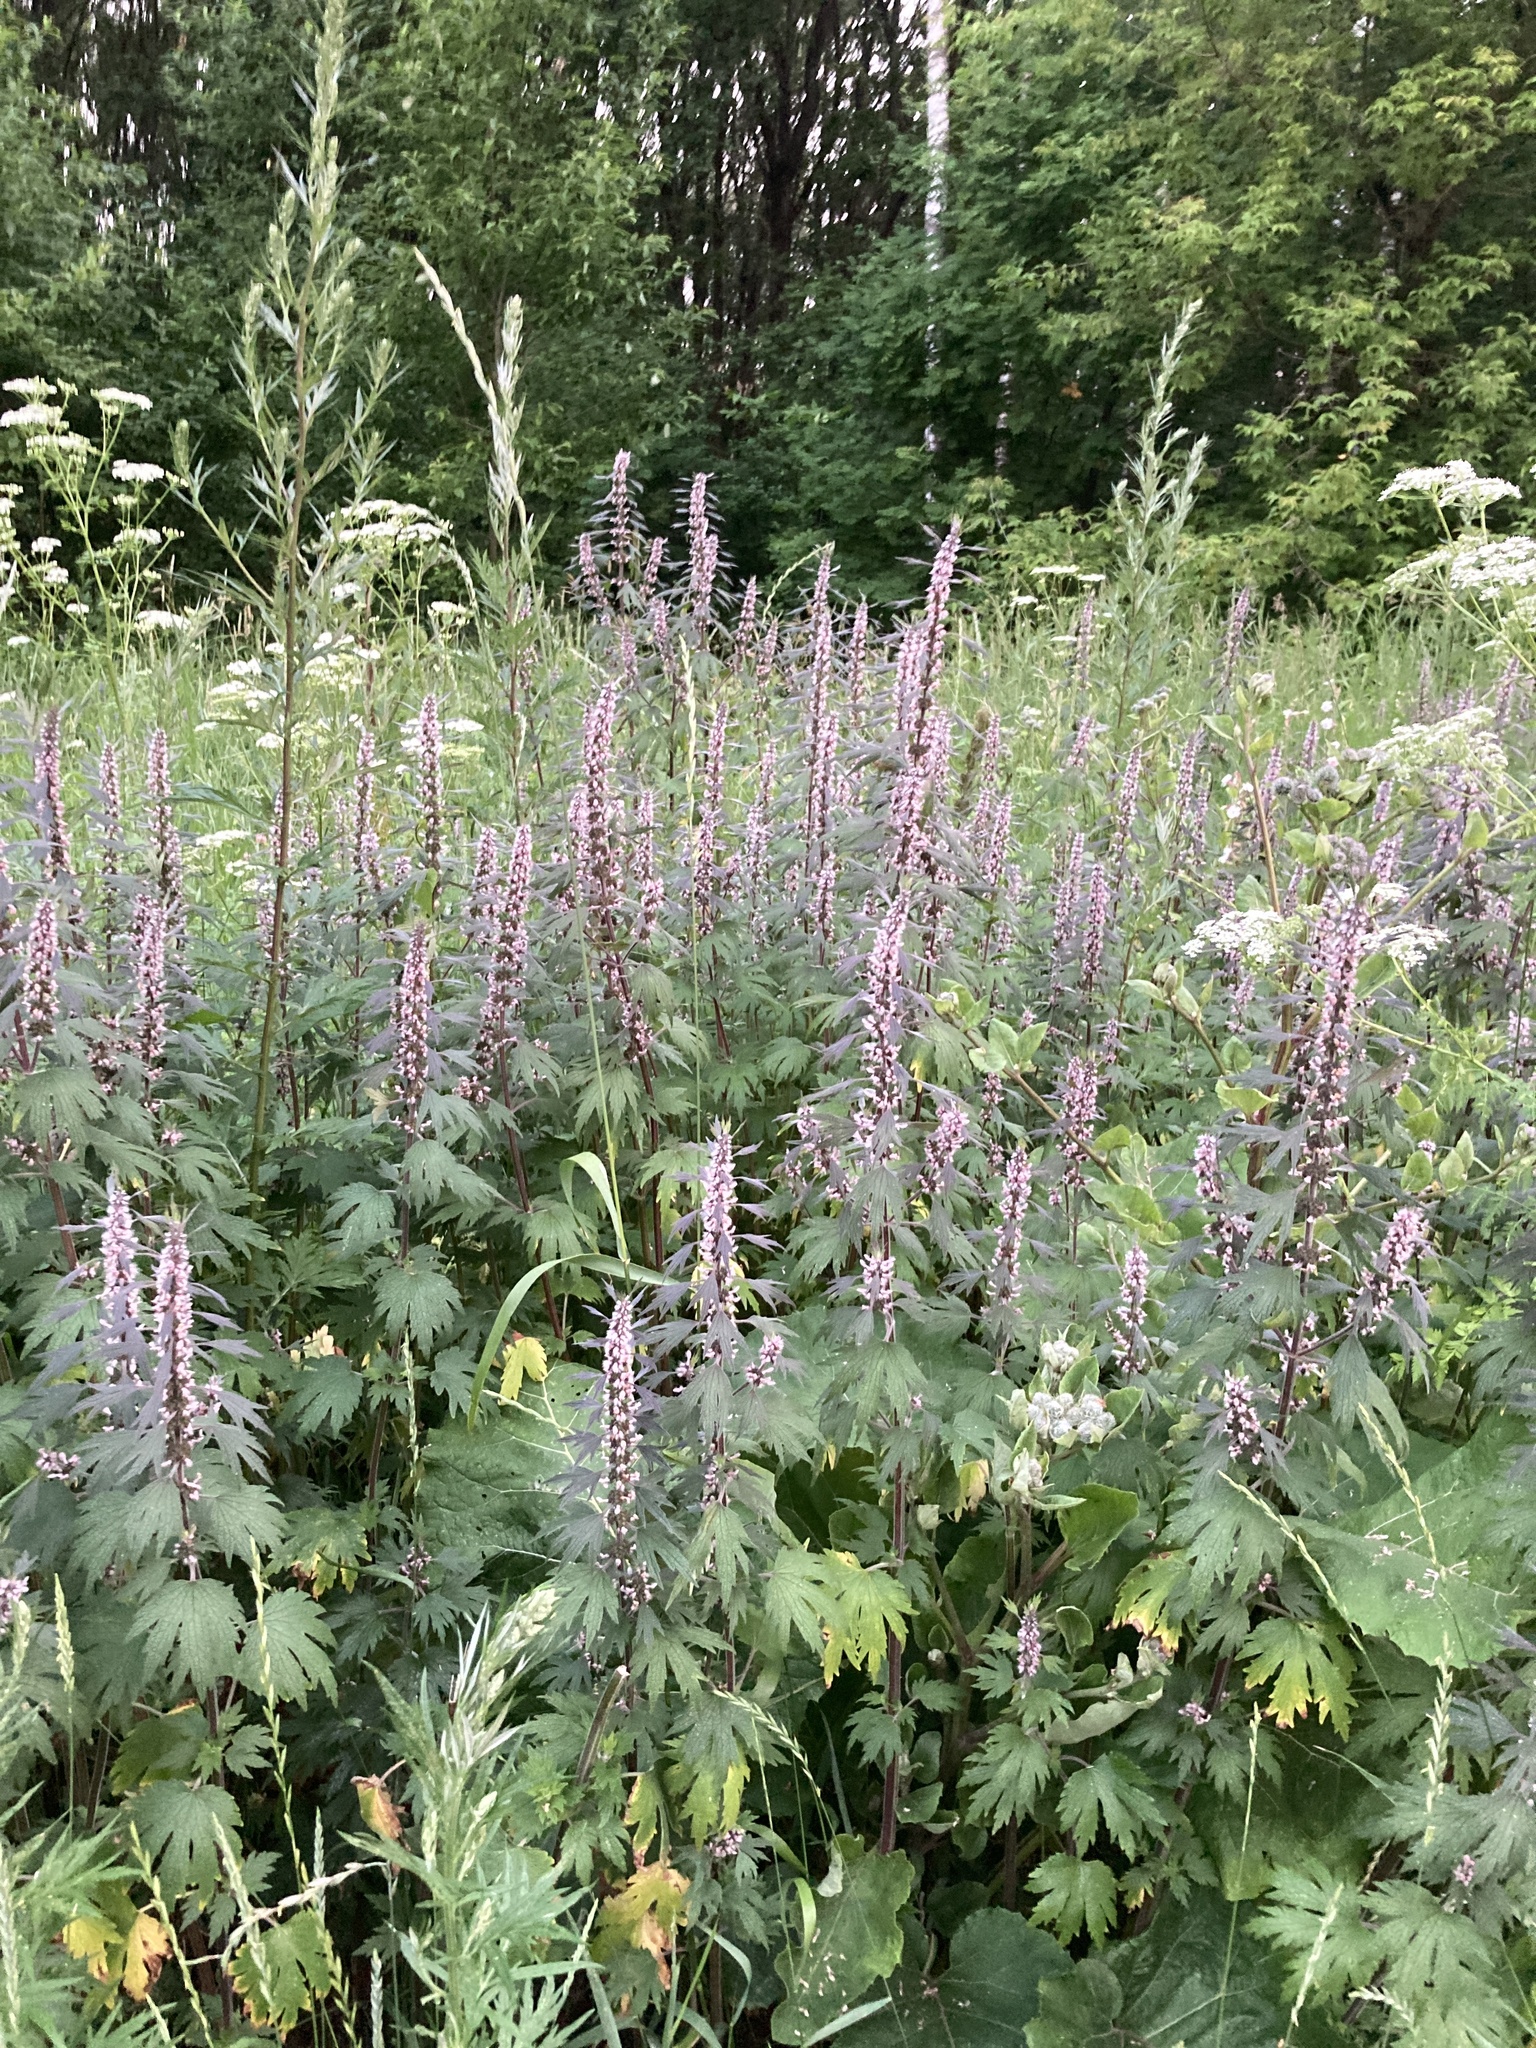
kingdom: Plantae
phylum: Tracheophyta
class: Magnoliopsida
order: Lamiales
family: Lamiaceae
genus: Leonurus
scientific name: Leonurus quinquelobatus
